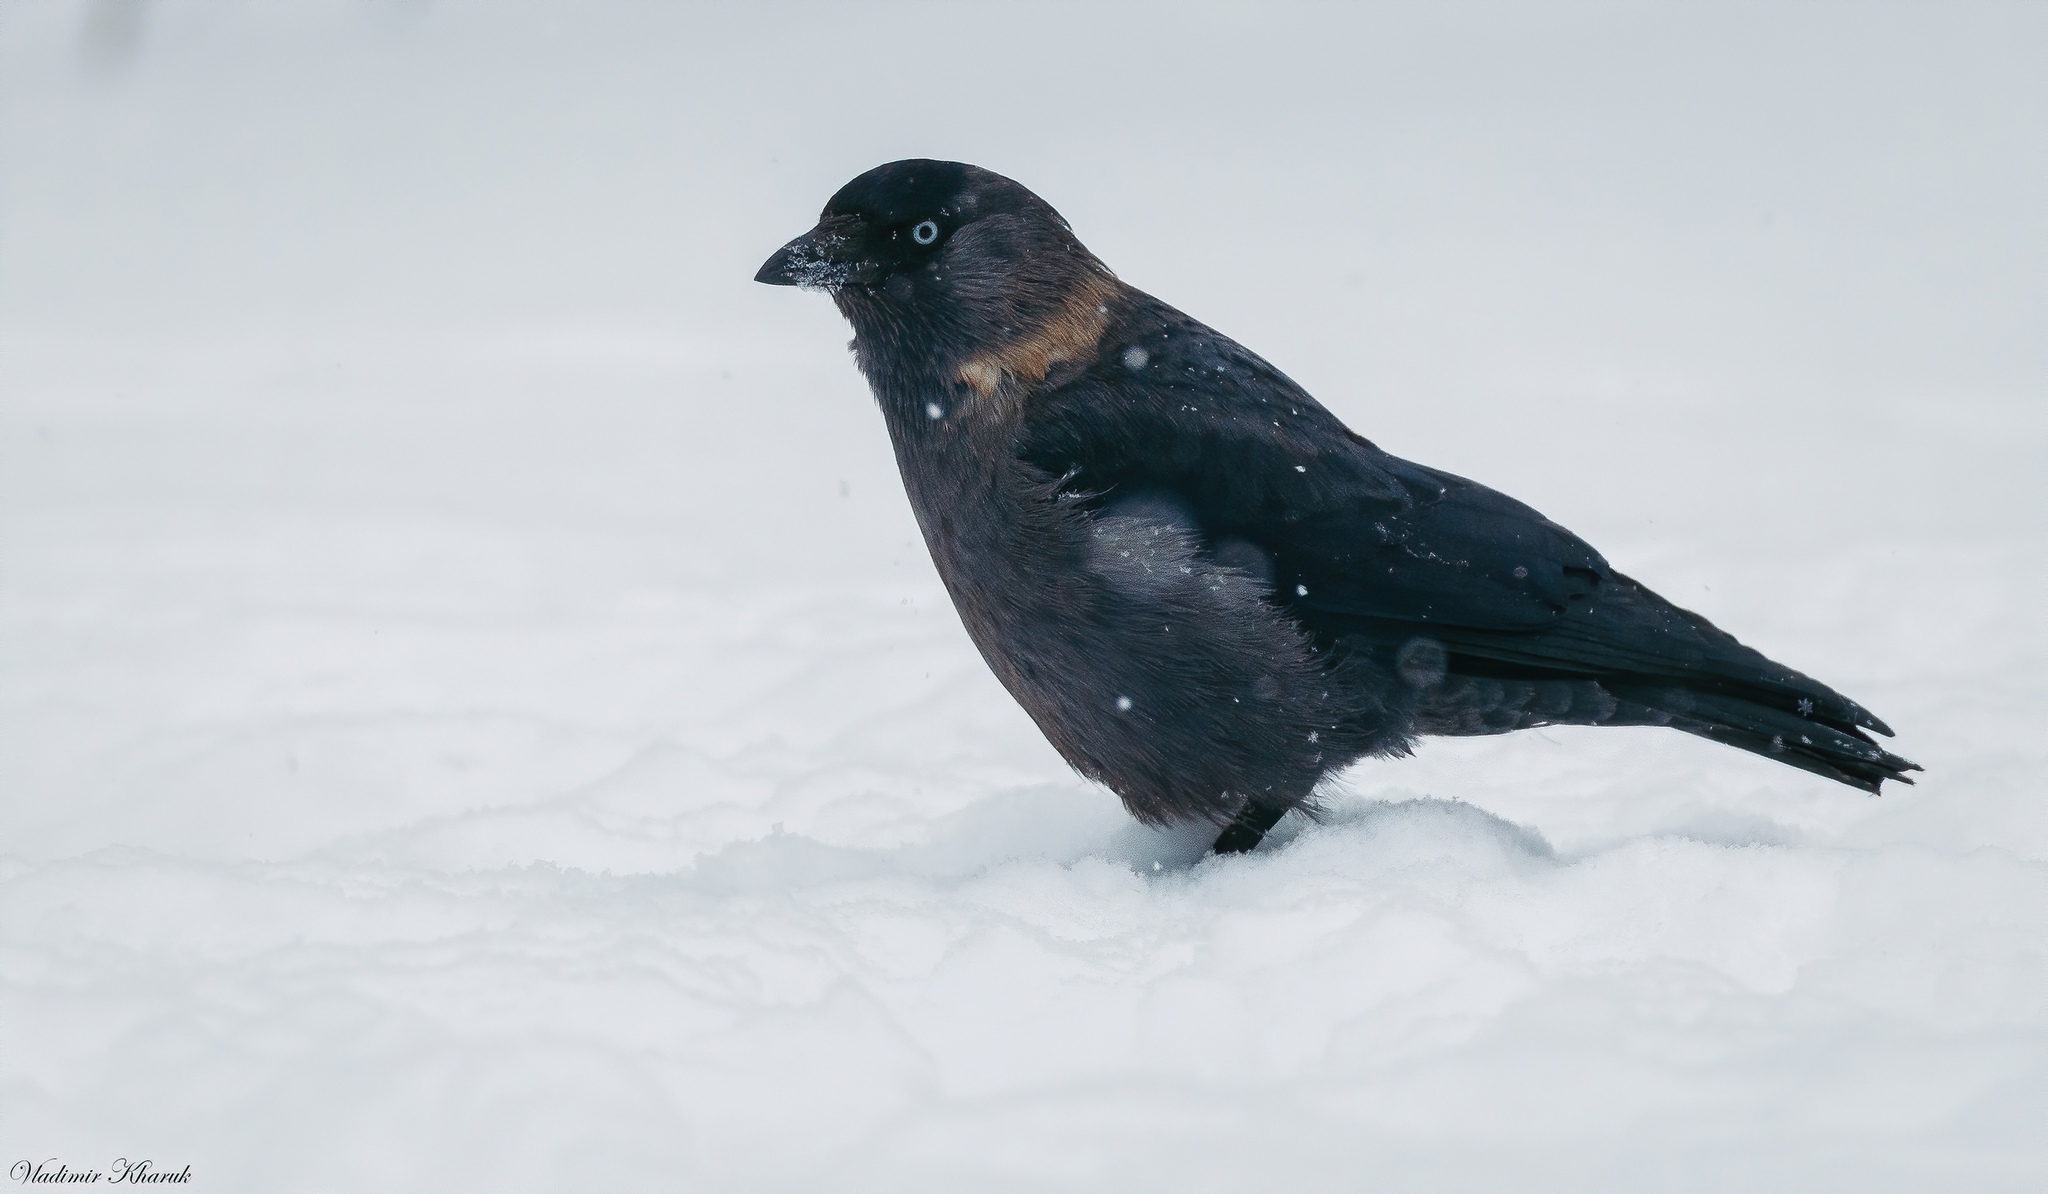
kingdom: Animalia
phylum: Chordata
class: Aves
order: Passeriformes
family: Corvidae
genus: Coloeus
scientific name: Coloeus monedula
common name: Western jackdaw
